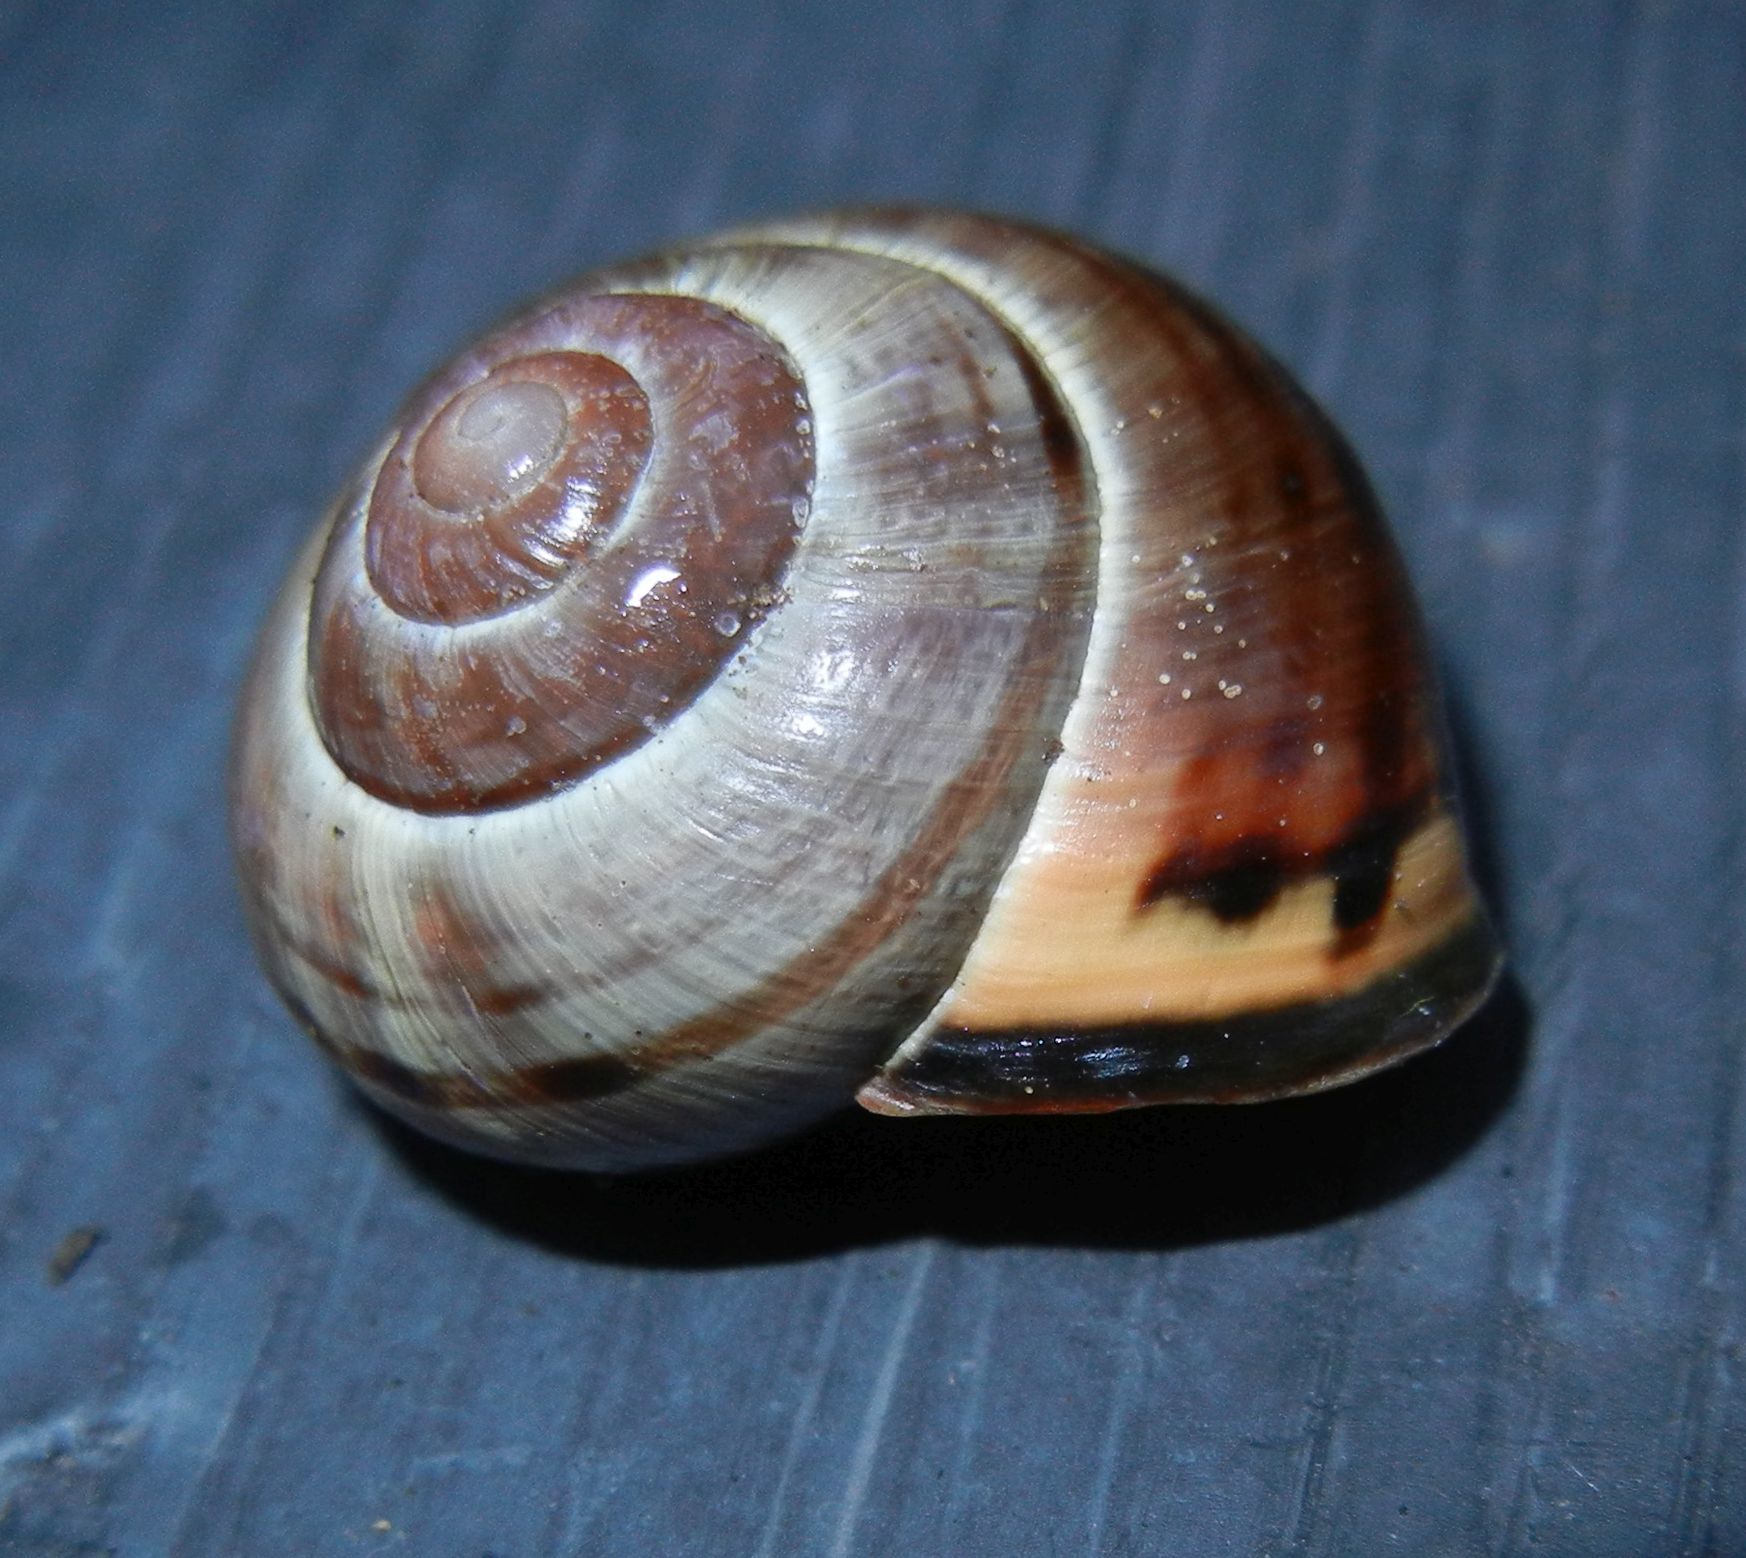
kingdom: Animalia
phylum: Mollusca
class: Gastropoda
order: Stylommatophora
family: Helicidae
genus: Cepaea
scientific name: Cepaea nemoralis
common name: Grovesnail
